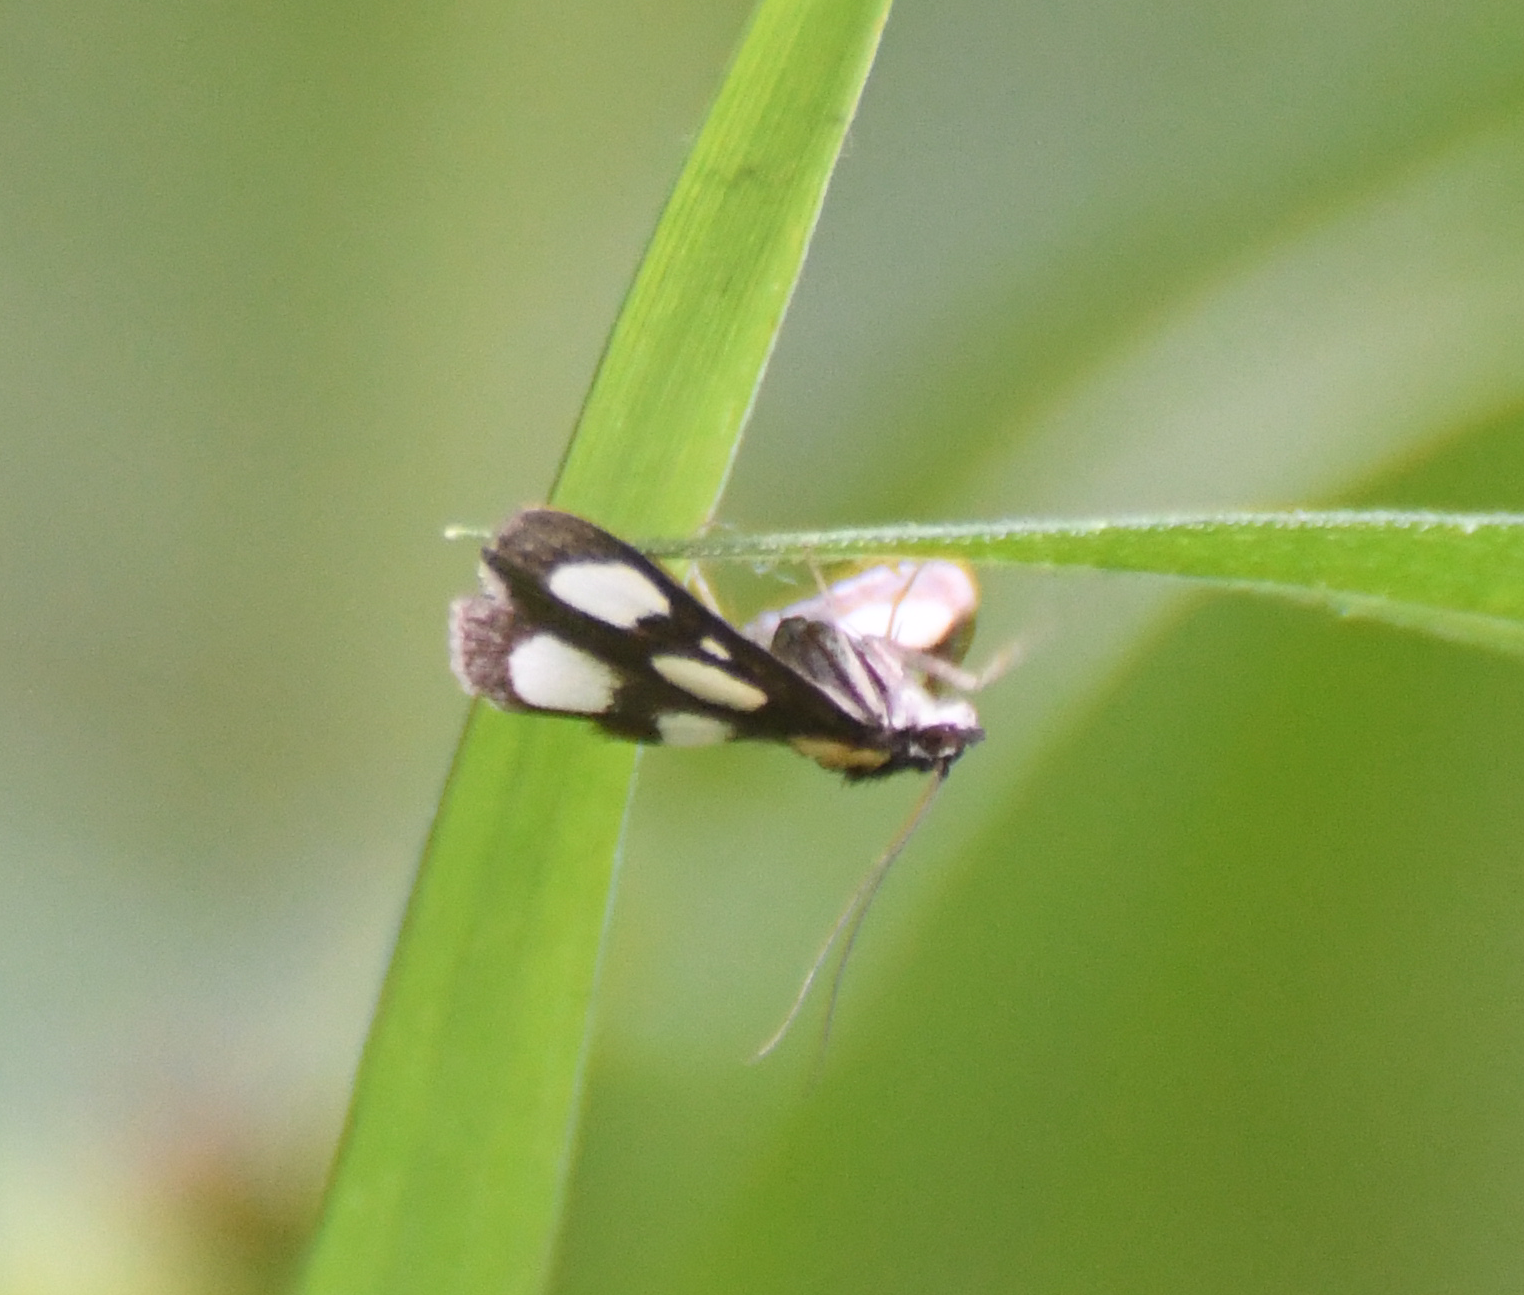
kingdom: Animalia
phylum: Arthropoda
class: Insecta
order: Lepidoptera
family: Crambidae
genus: Anania
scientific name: Anania funebris
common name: White-spotted sable moth
